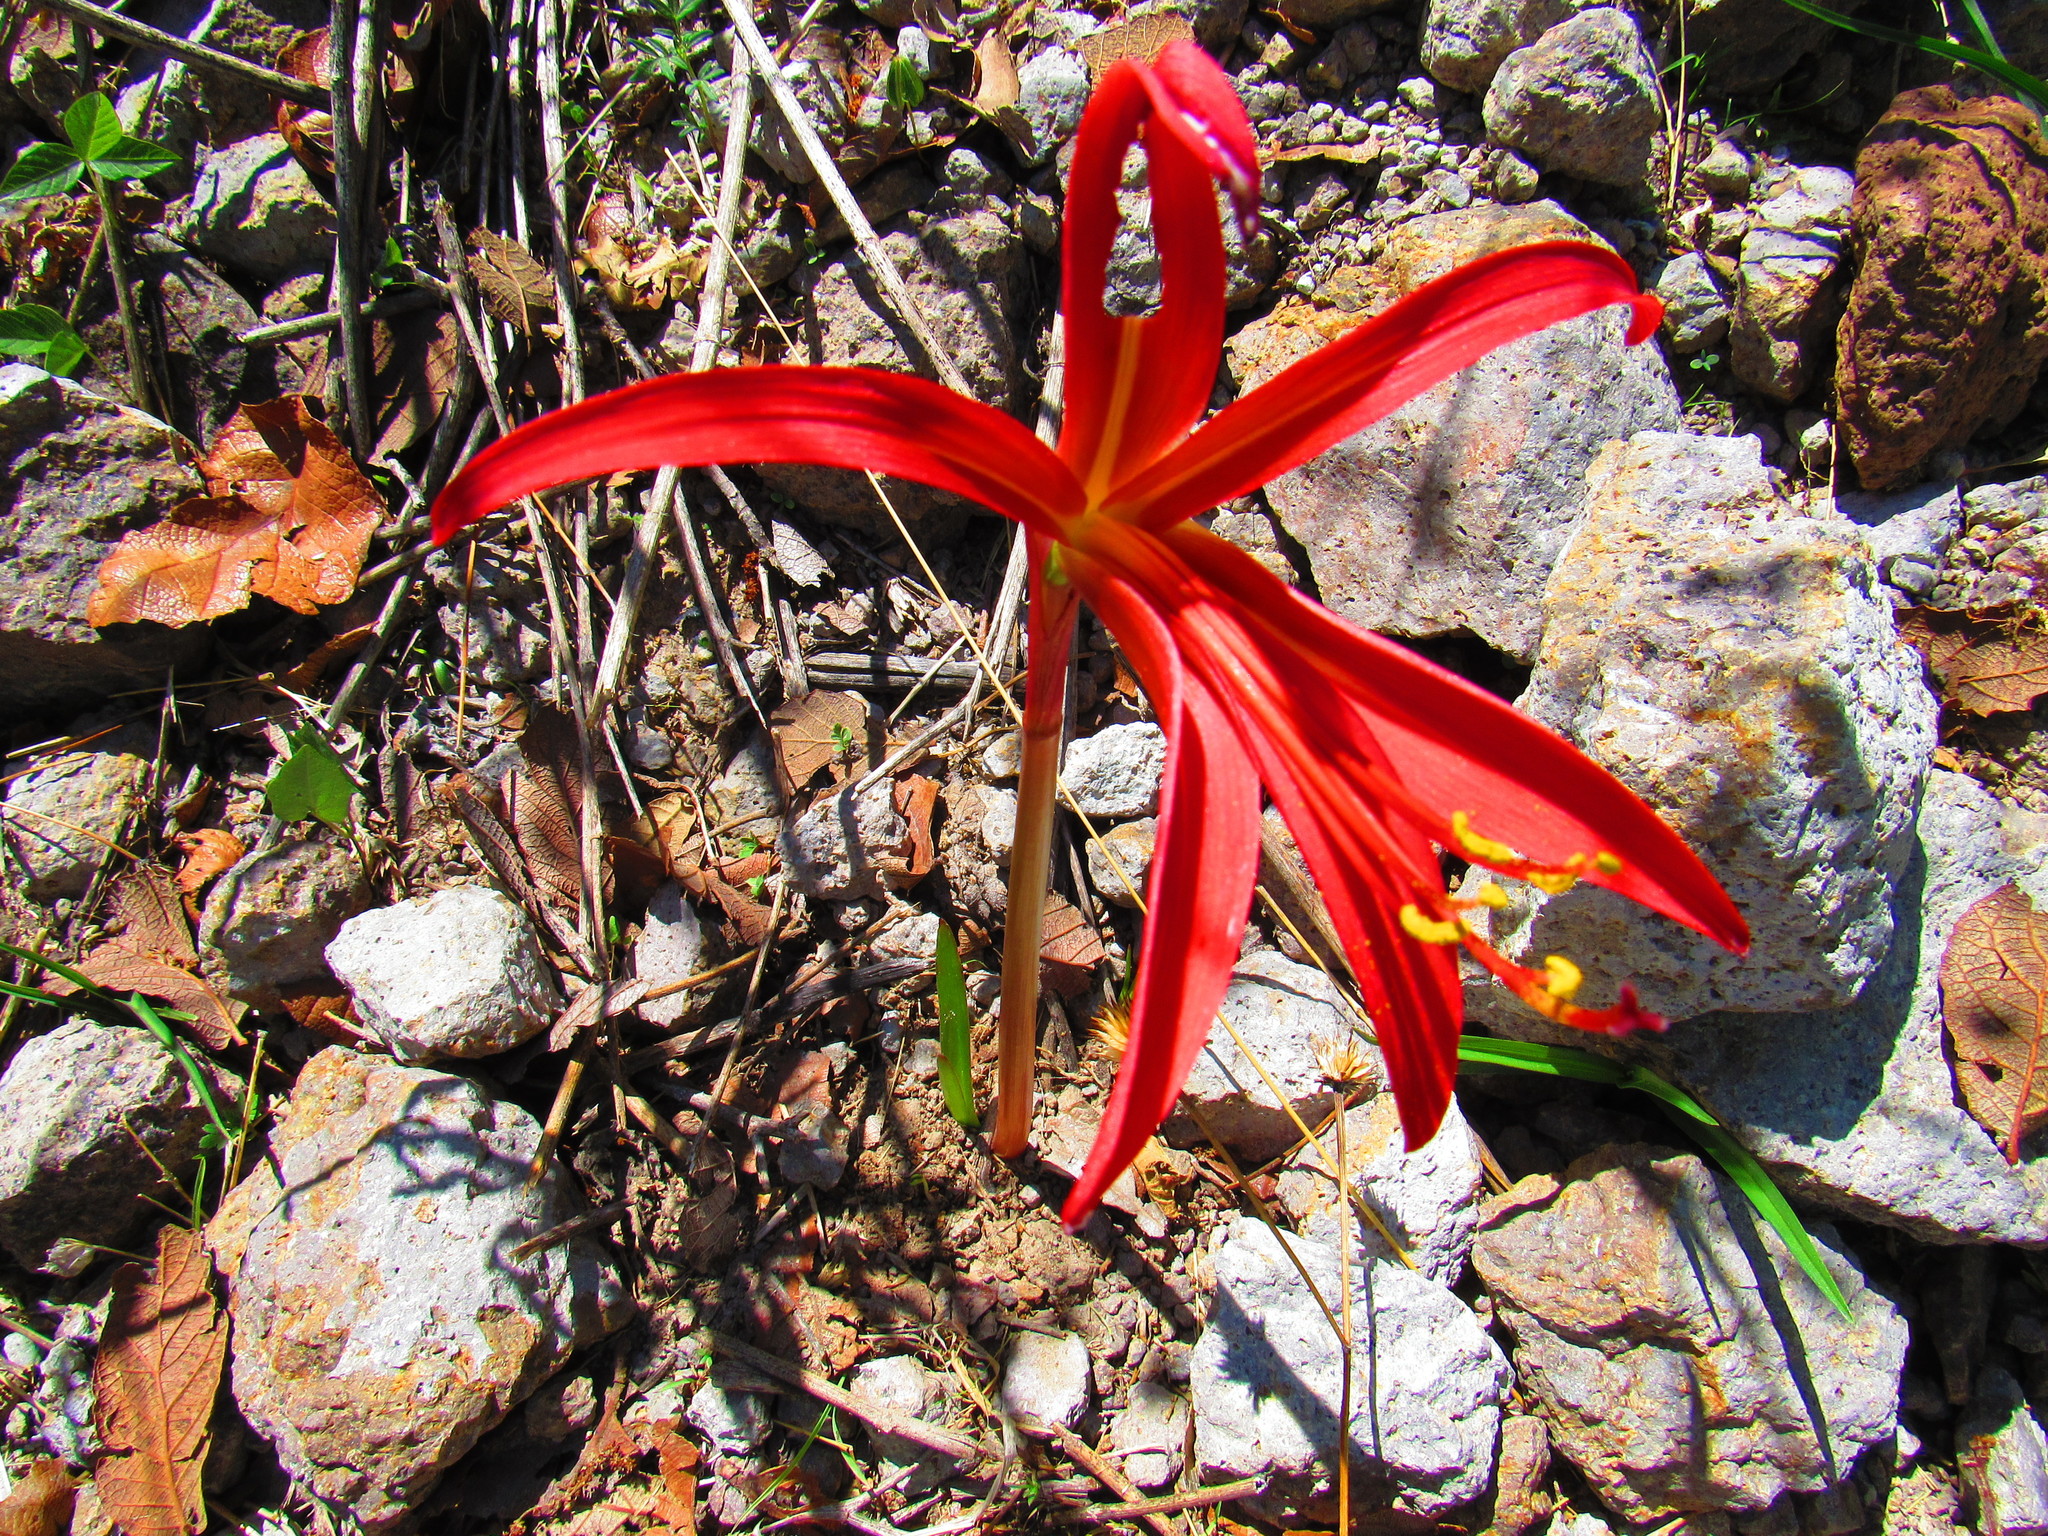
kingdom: Plantae
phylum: Tracheophyta
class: Liliopsida
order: Asparagales
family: Amaryllidaceae
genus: Sprekelia
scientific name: Sprekelia formosissima
